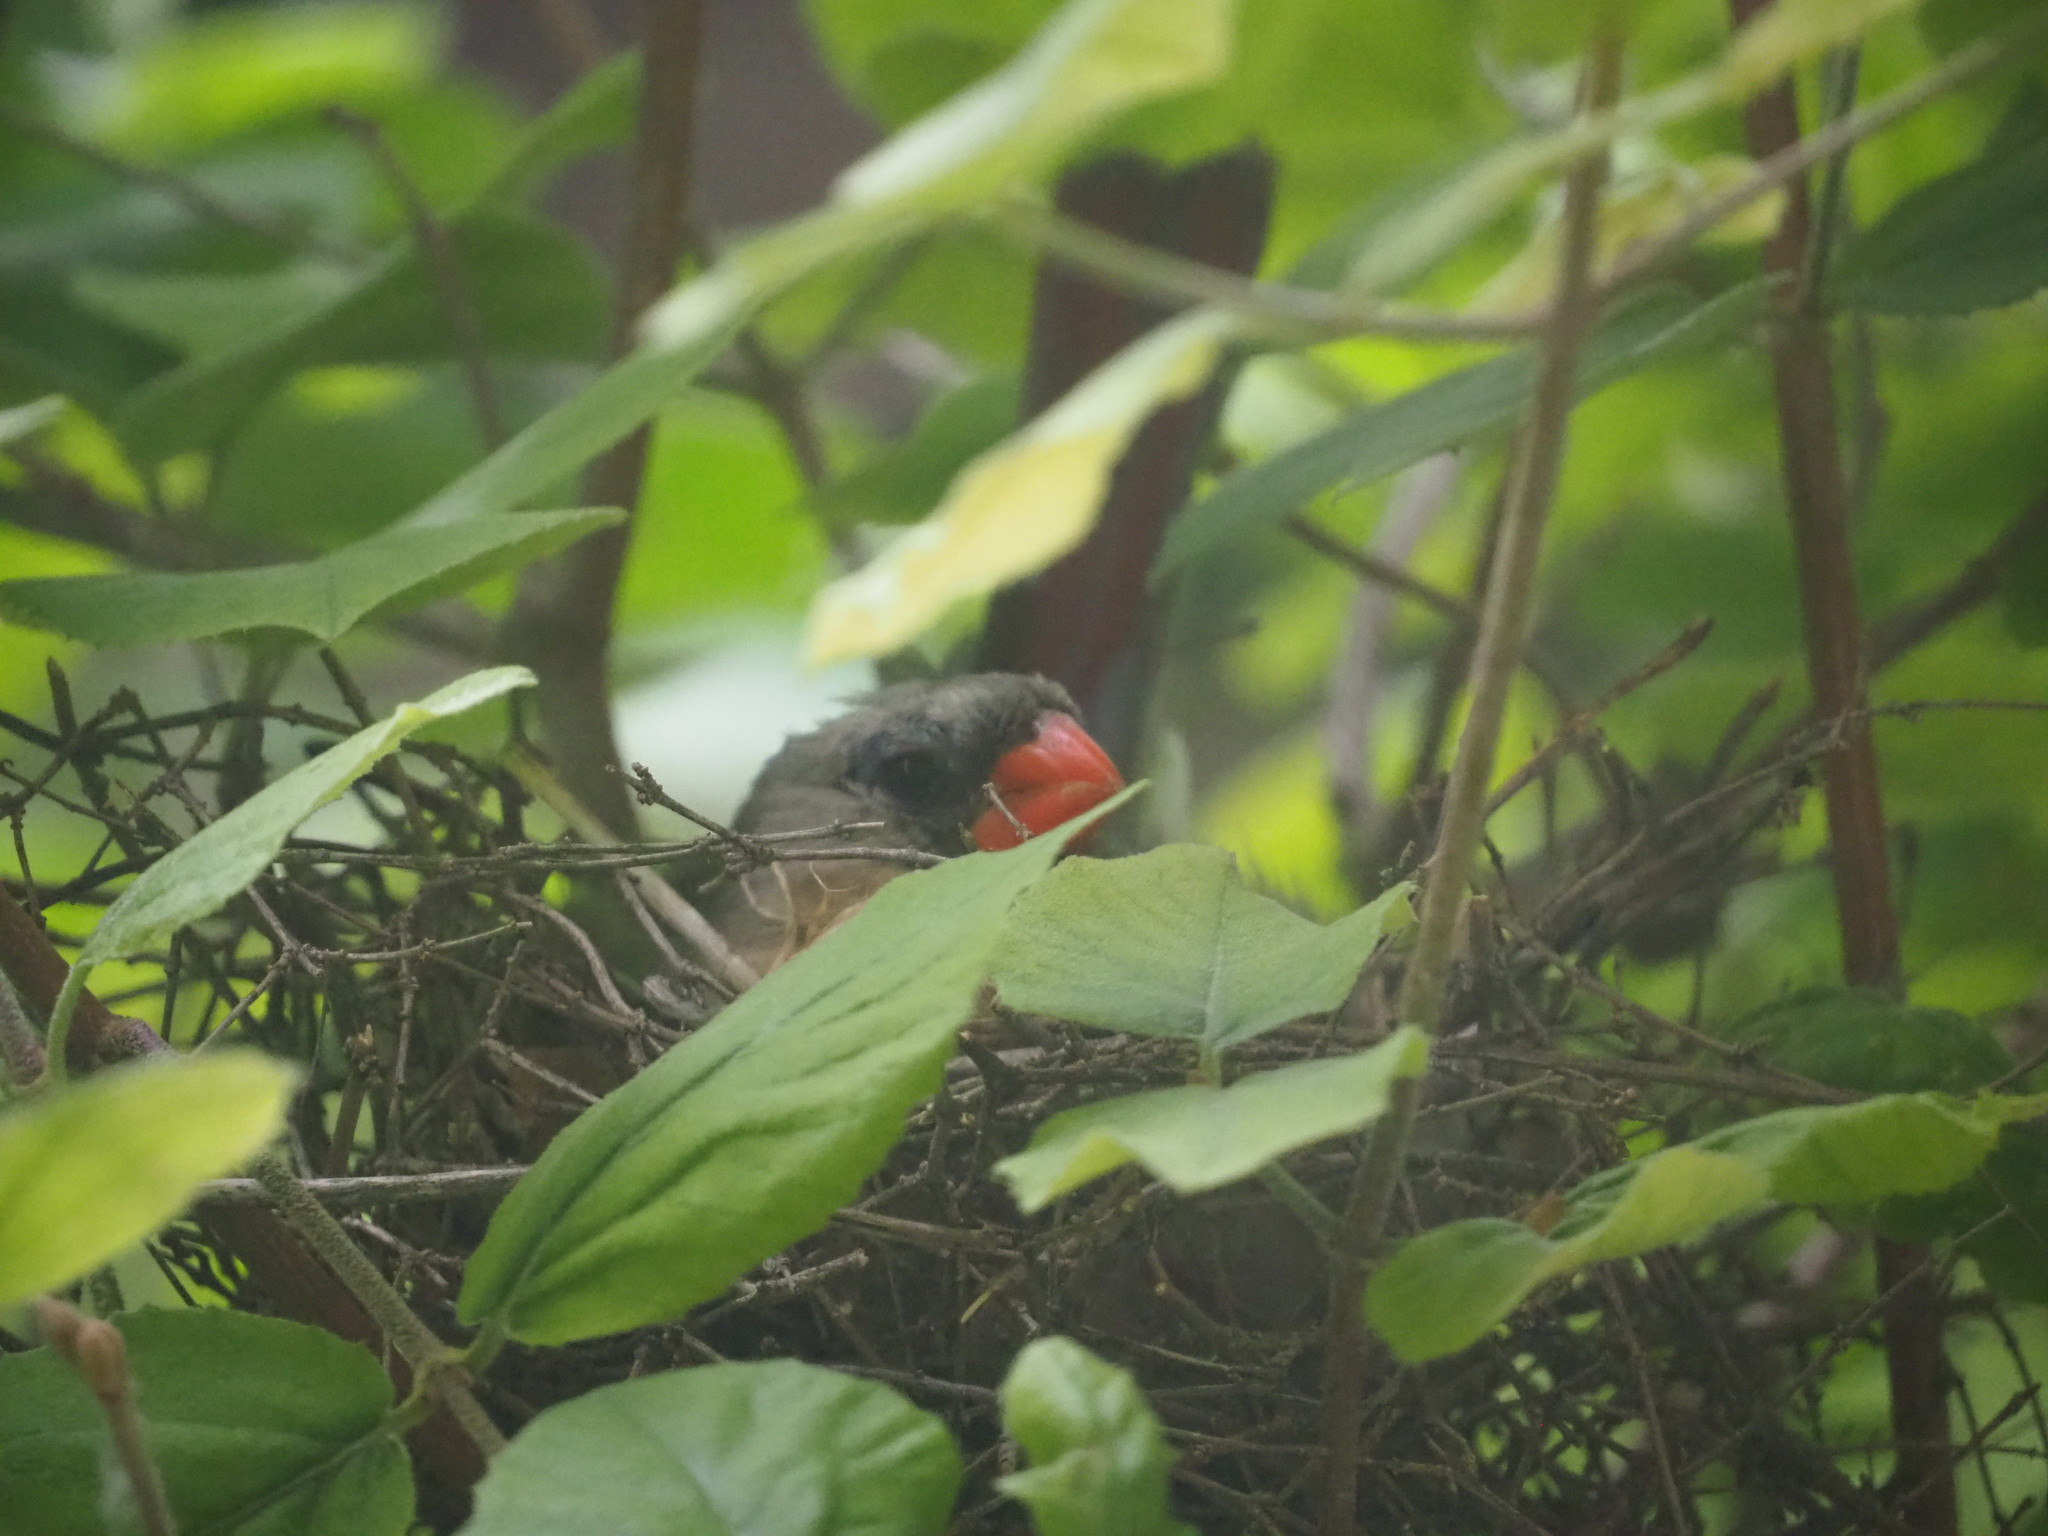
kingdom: Animalia
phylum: Chordata
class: Aves
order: Passeriformes
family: Cardinalidae
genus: Cardinalis
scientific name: Cardinalis cardinalis
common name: Northern cardinal
